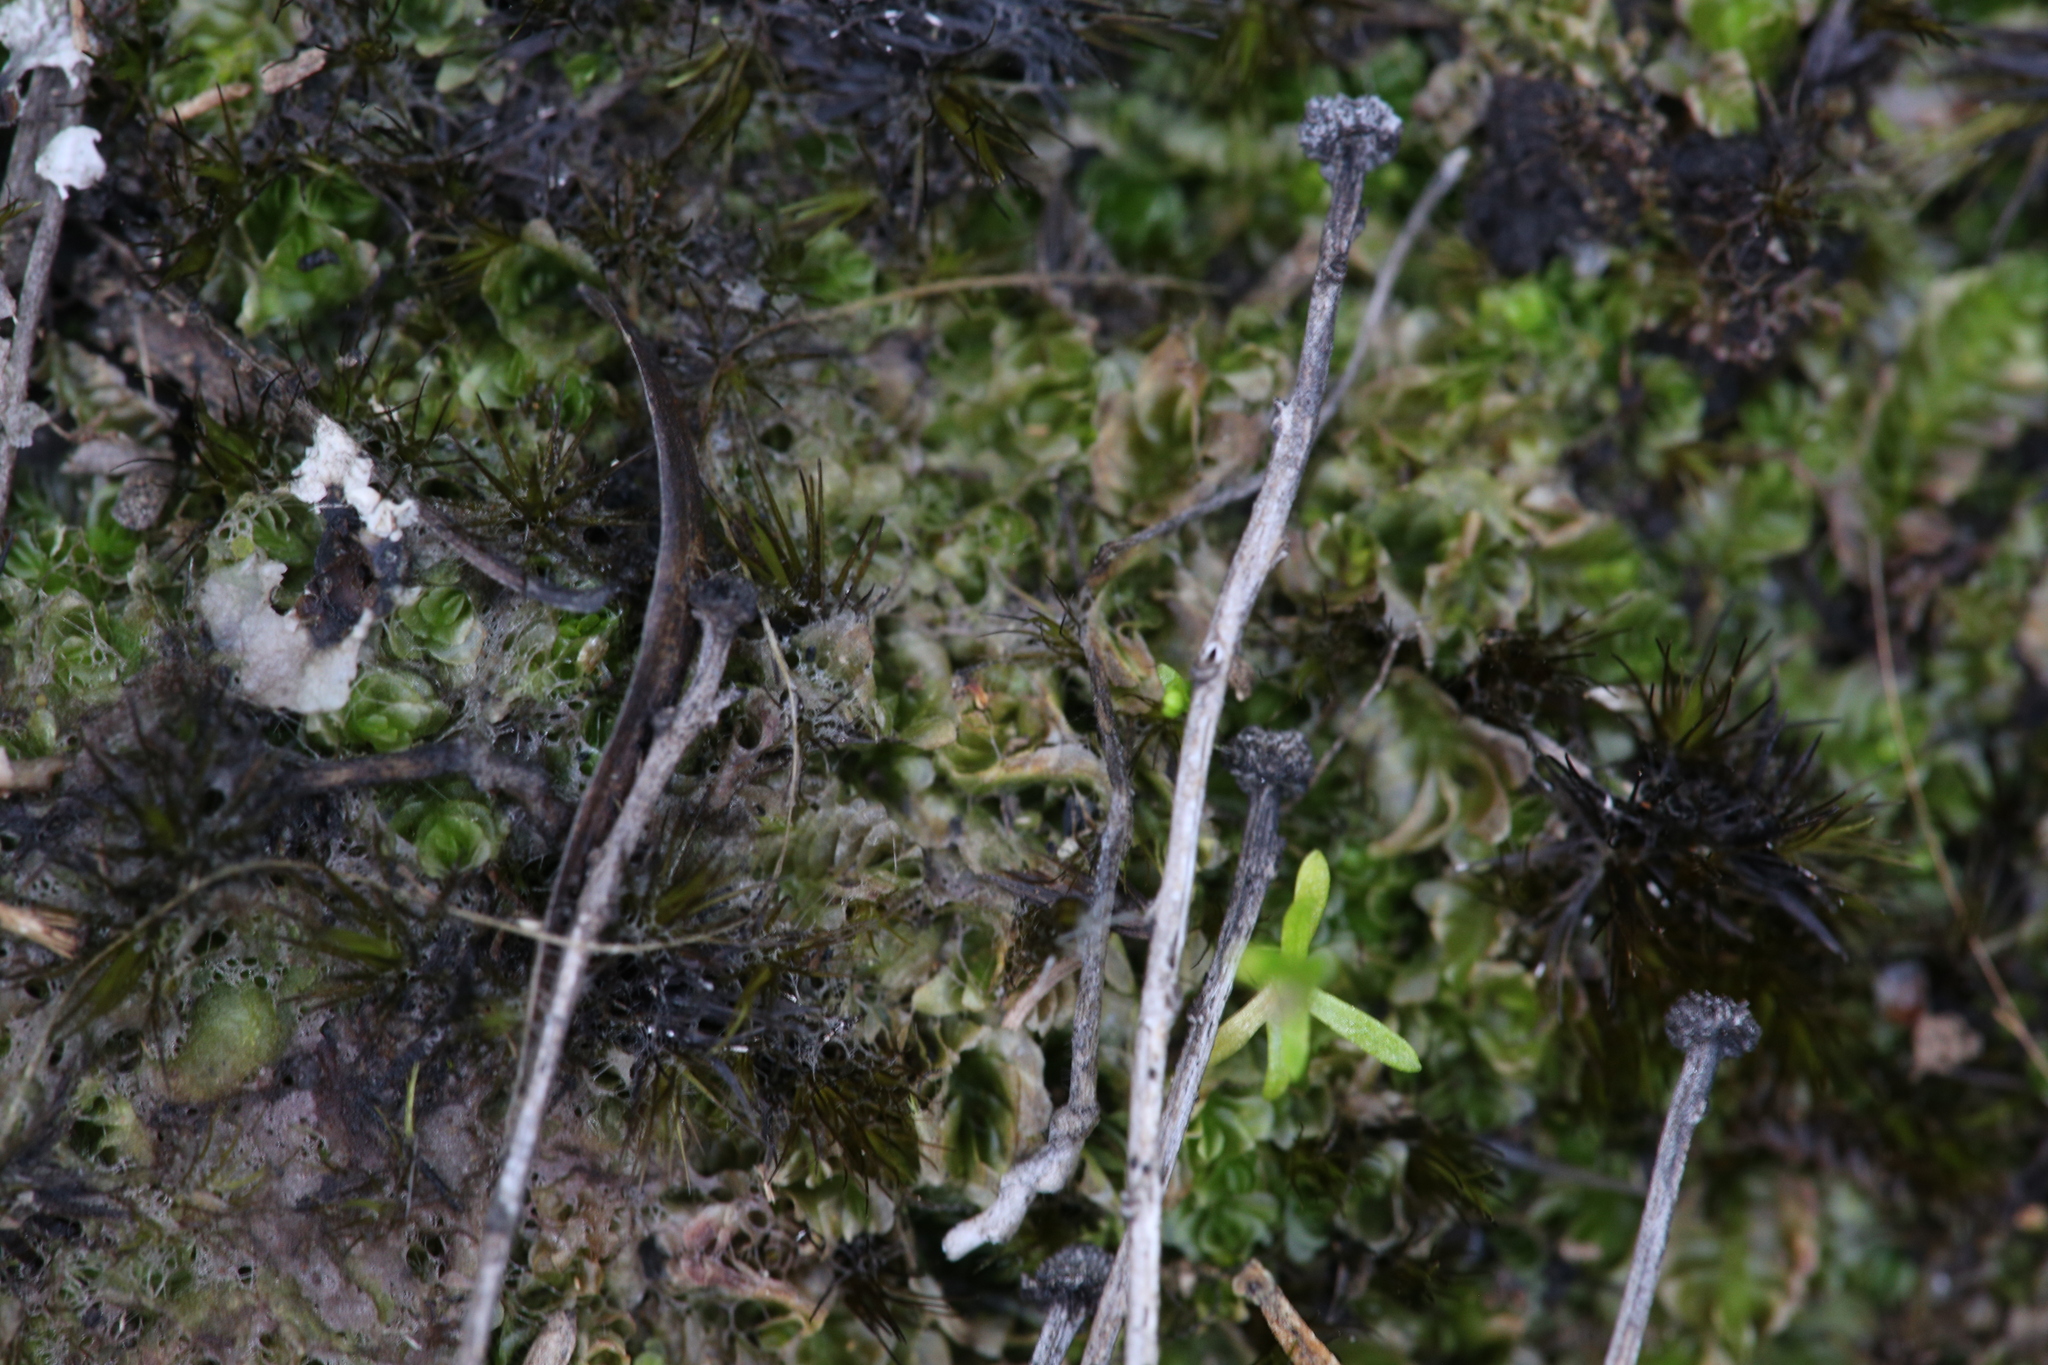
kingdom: Plantae
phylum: Marchantiophyta
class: Jungermanniopsida
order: Jungermanniales
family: Acrobolbaceae
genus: Lethocolea
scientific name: Lethocolea pansa
